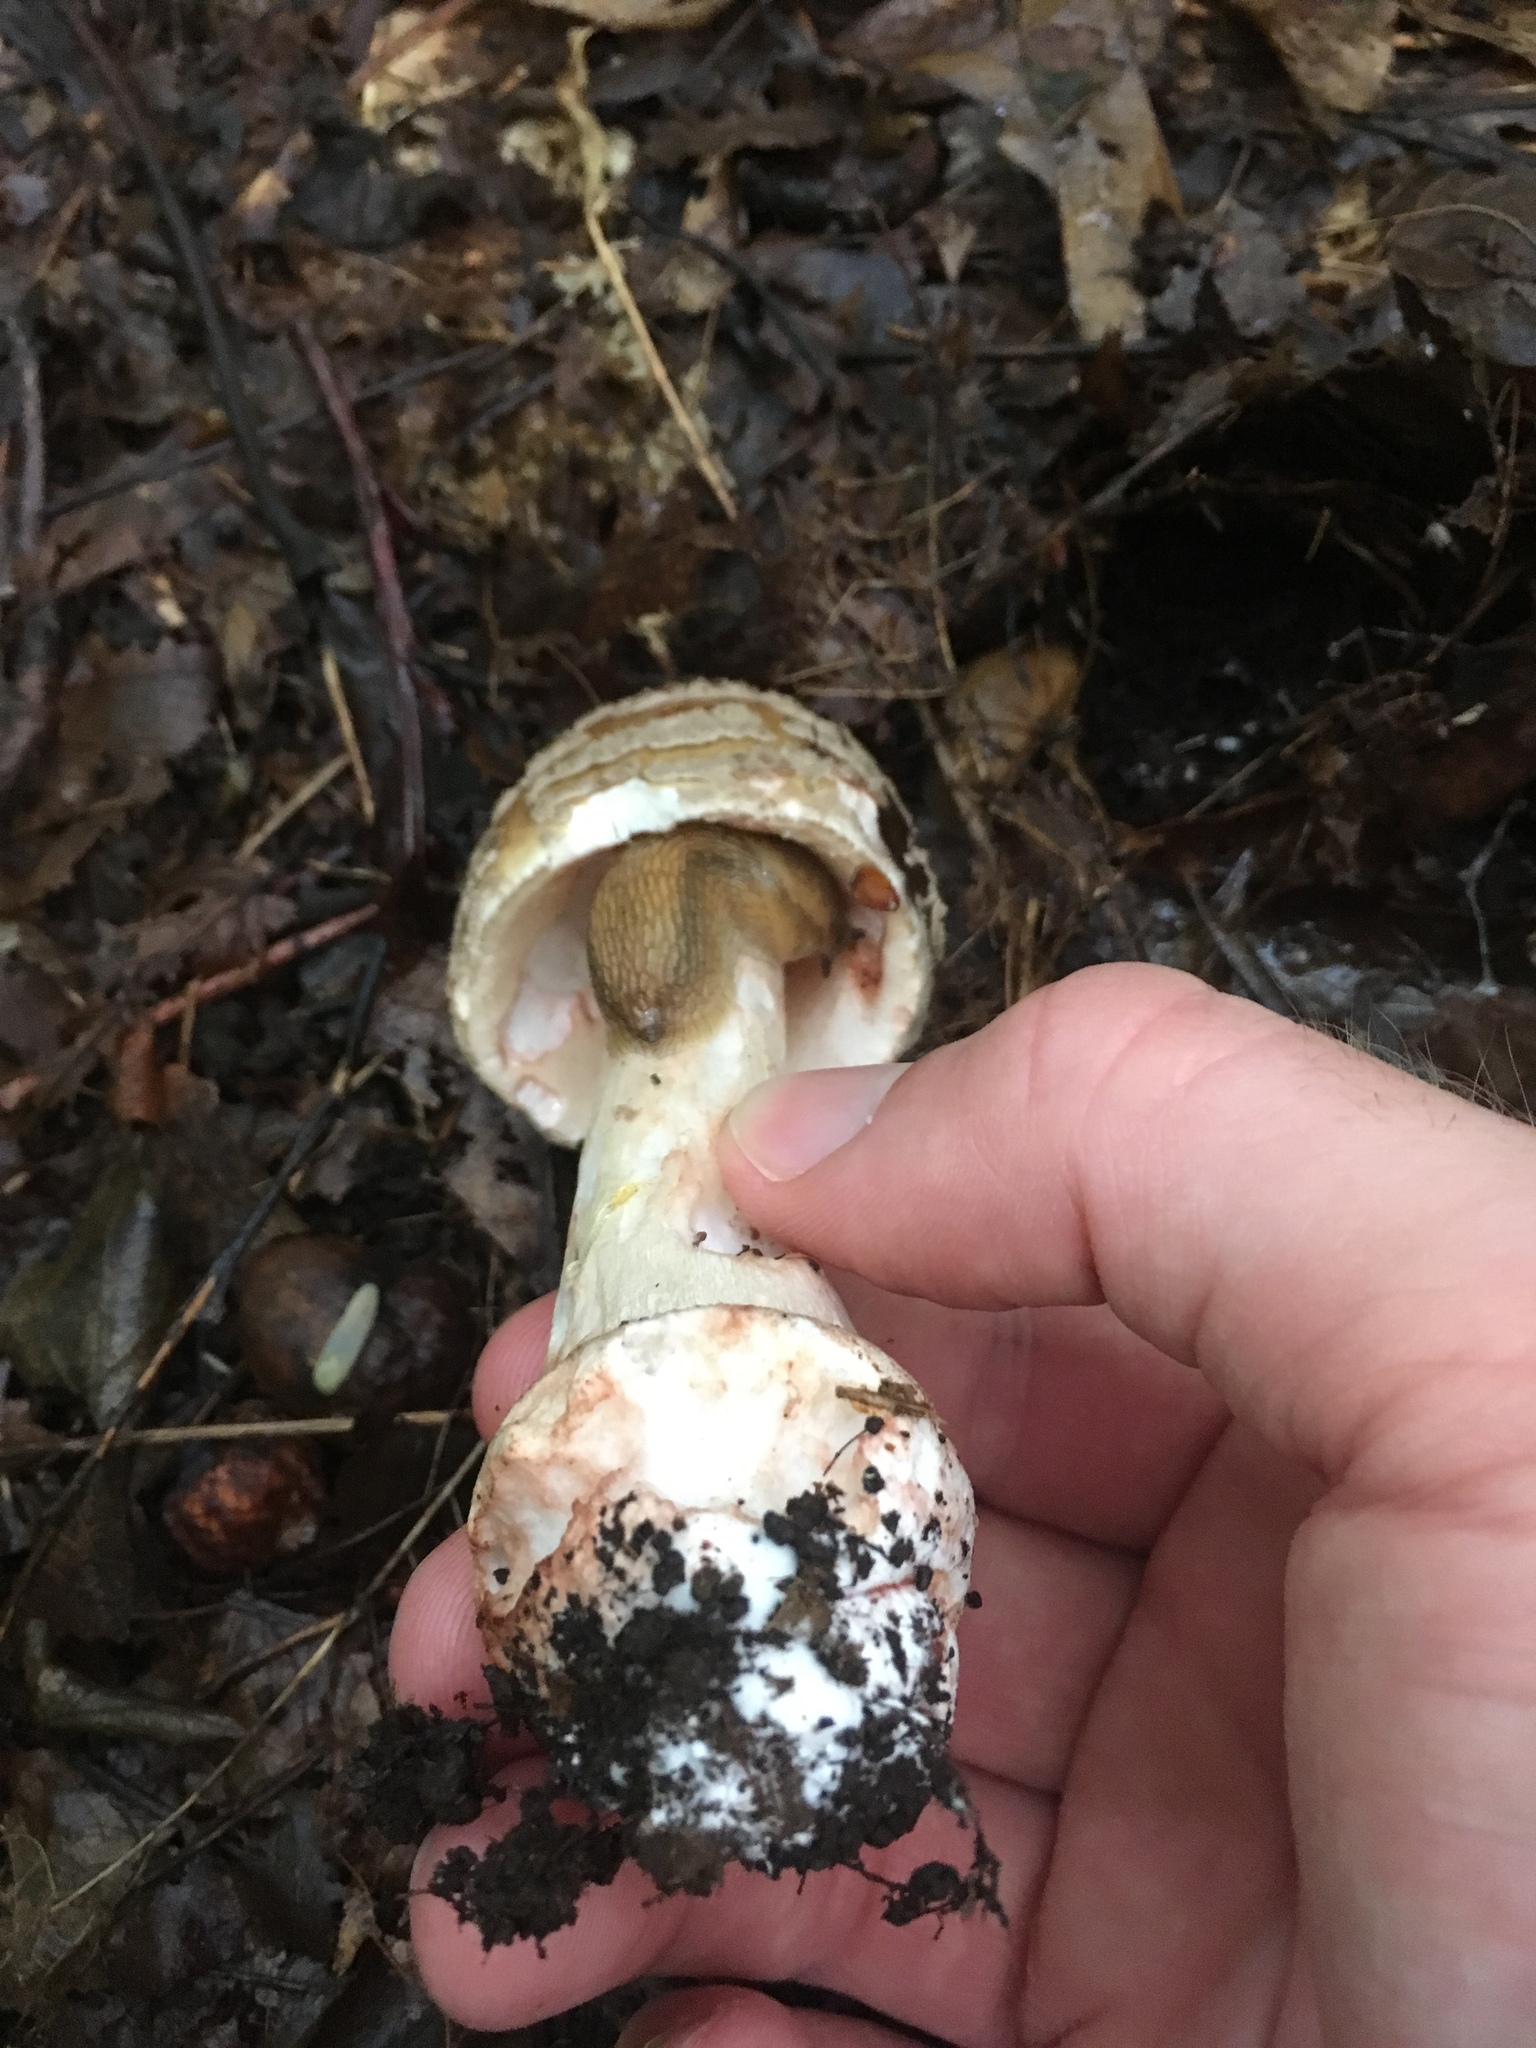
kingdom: Fungi
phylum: Basidiomycota
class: Agaricomycetes
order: Agaricales
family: Amanitaceae
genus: Amanita
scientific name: Amanita rubescens
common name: Blusher
